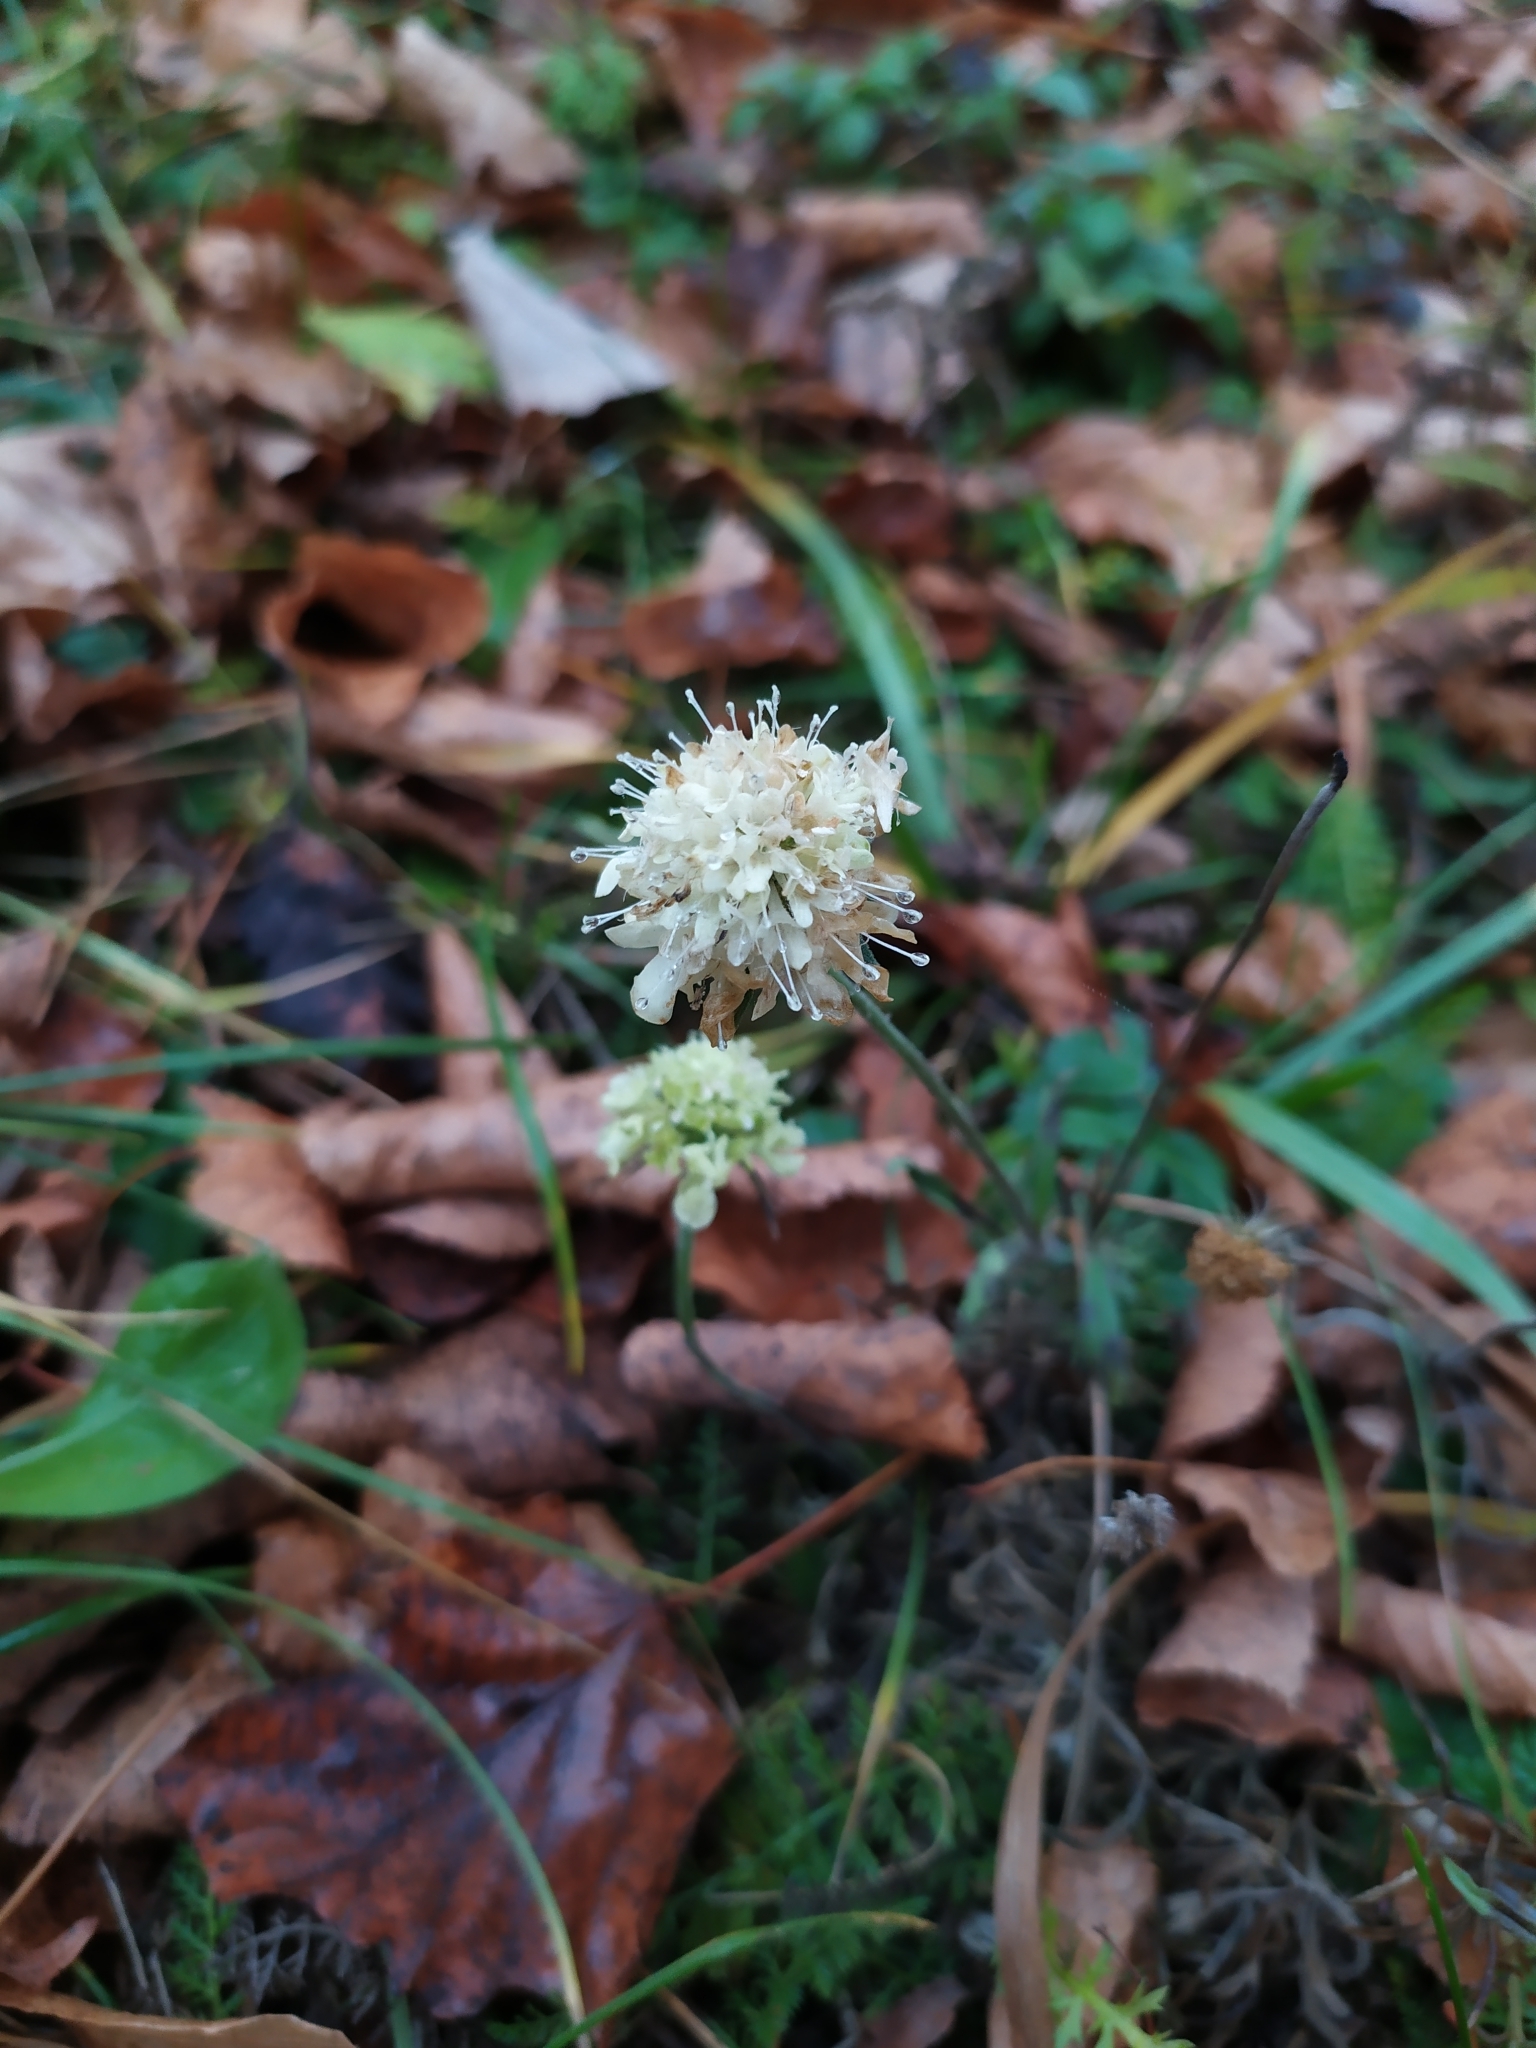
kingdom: Plantae
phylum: Tracheophyta
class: Magnoliopsida
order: Dipsacales
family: Caprifoliaceae
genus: Scabiosa
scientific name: Scabiosa ochroleuca
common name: Cream pincushions
